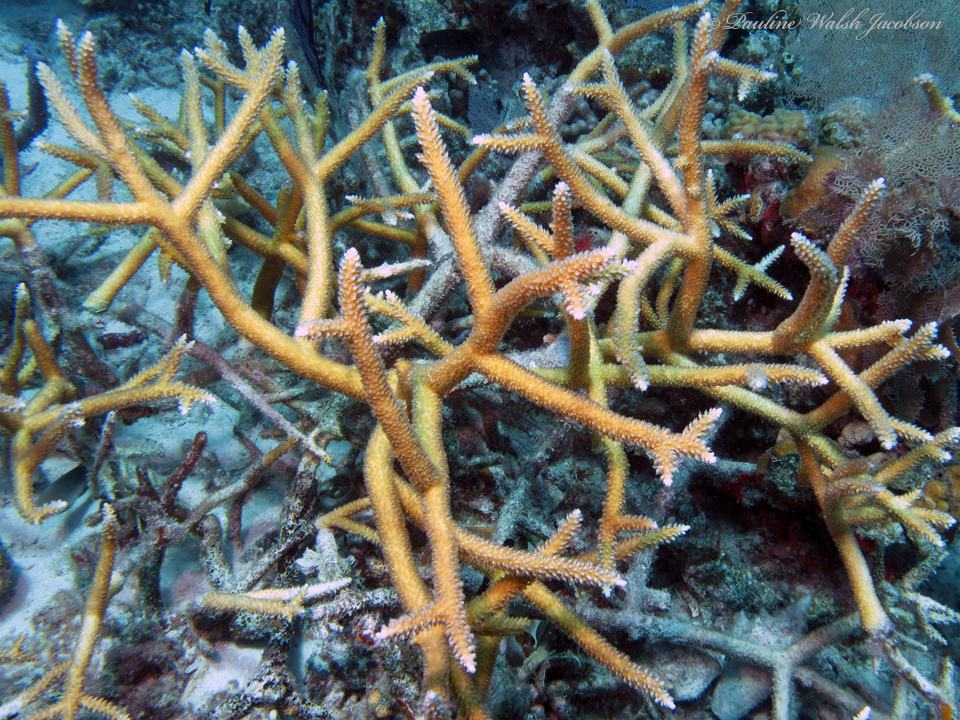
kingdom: Animalia
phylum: Cnidaria
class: Anthozoa
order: Scleractinia
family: Acroporidae
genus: Acropora
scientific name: Acropora cervicornis
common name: Staghorn coral
